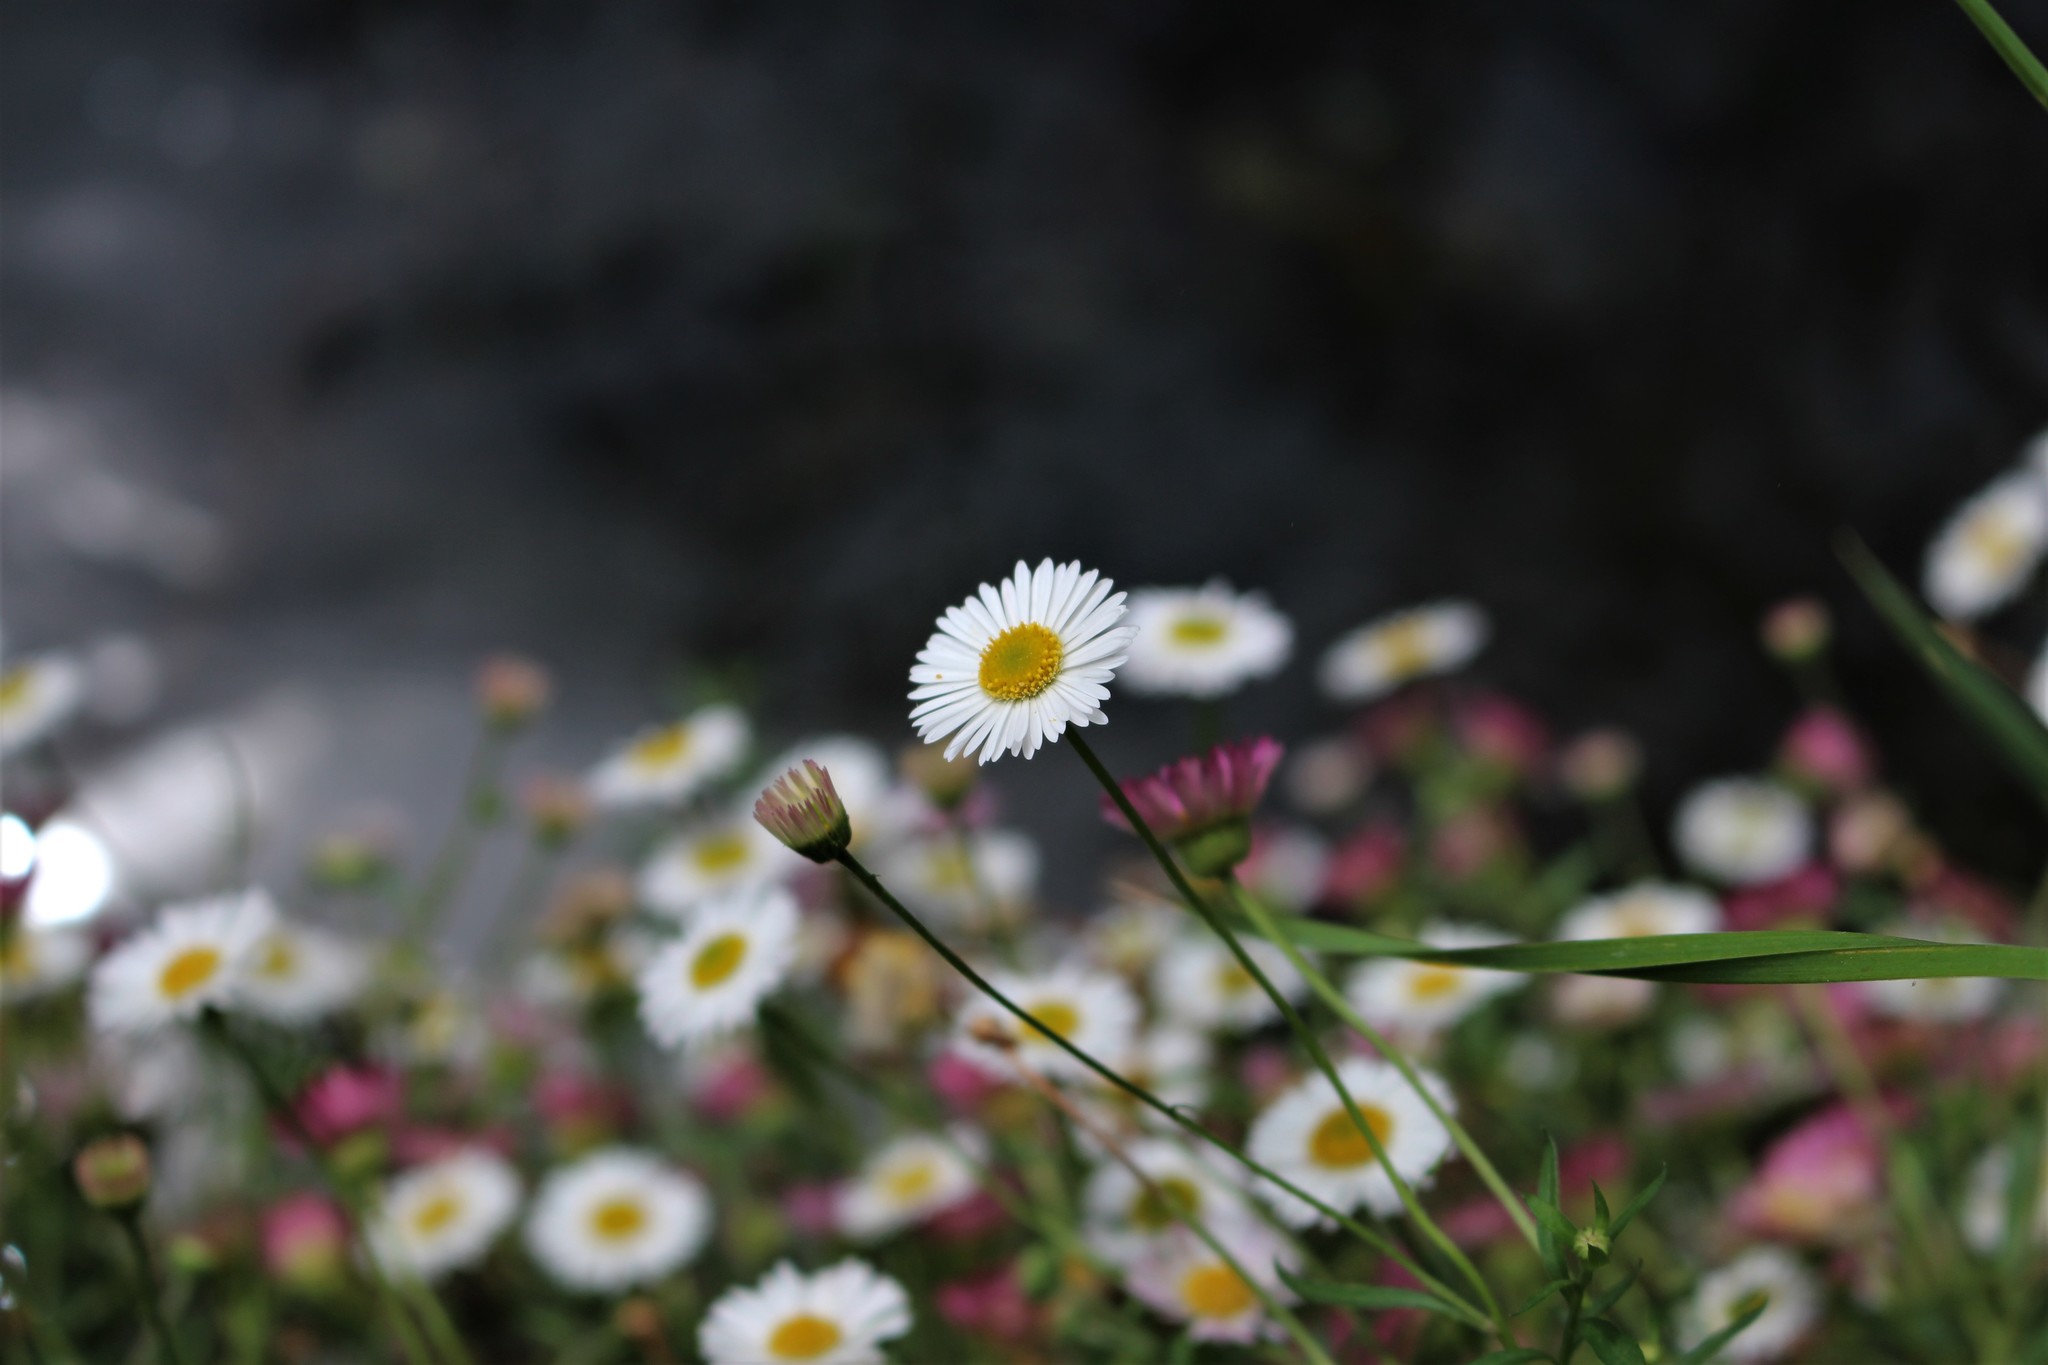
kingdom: Plantae
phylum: Tracheophyta
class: Magnoliopsida
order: Asterales
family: Asteraceae
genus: Erigeron
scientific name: Erigeron karvinskianus
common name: Mexican fleabane
